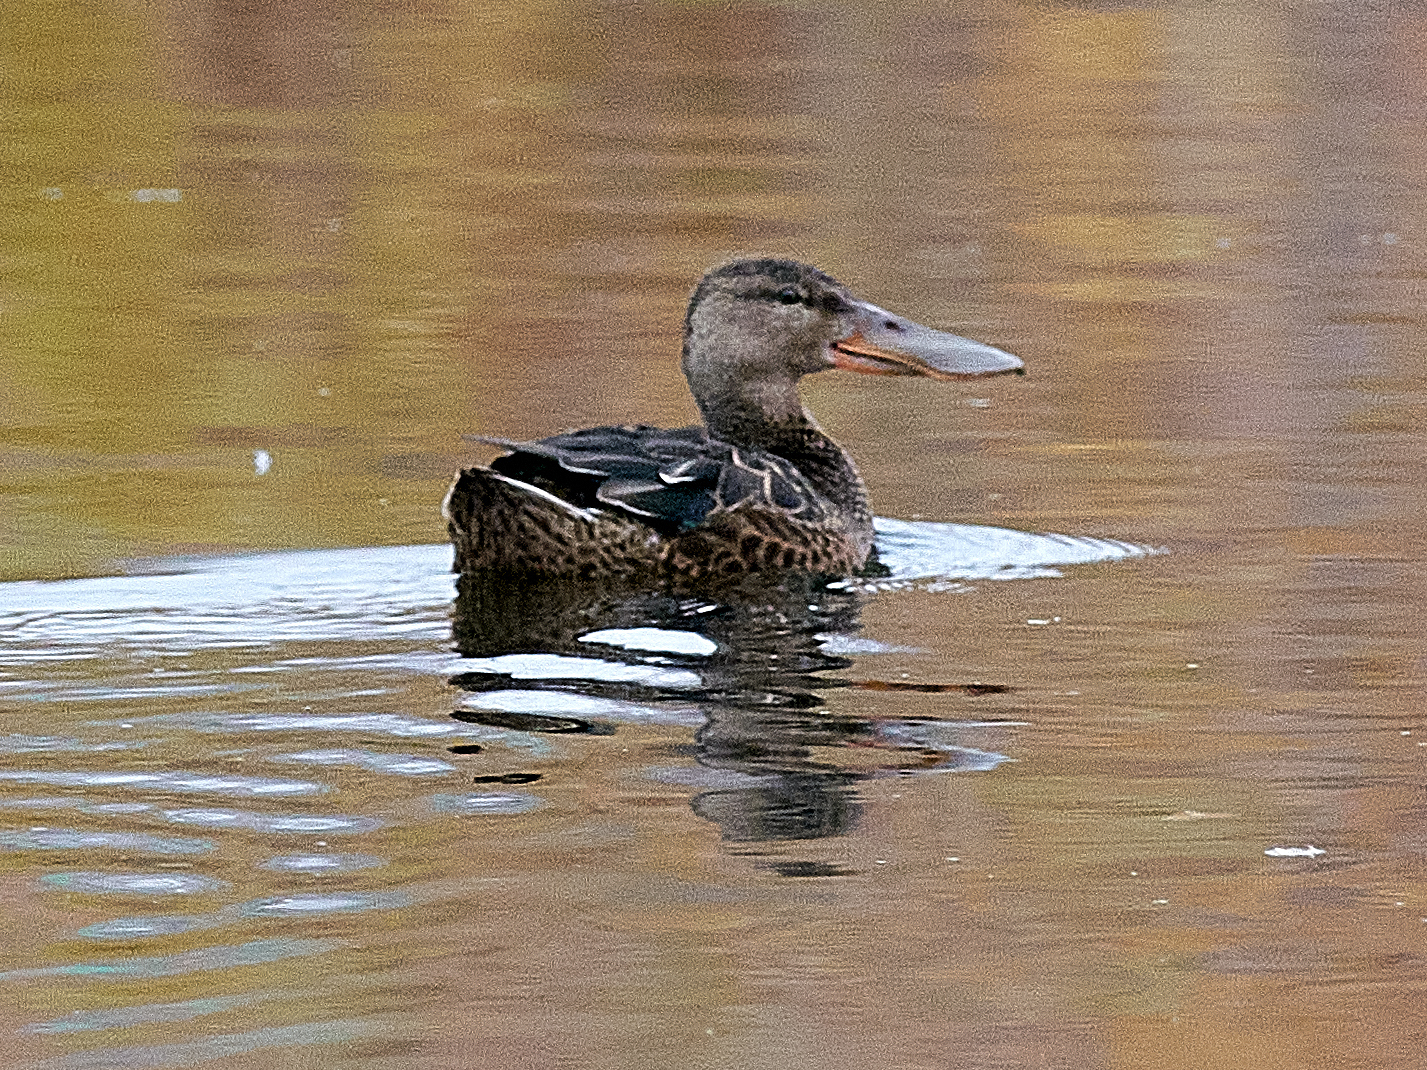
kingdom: Animalia
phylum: Chordata
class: Aves
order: Anseriformes
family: Anatidae
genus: Spatula
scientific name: Spatula clypeata
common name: Northern shoveler
